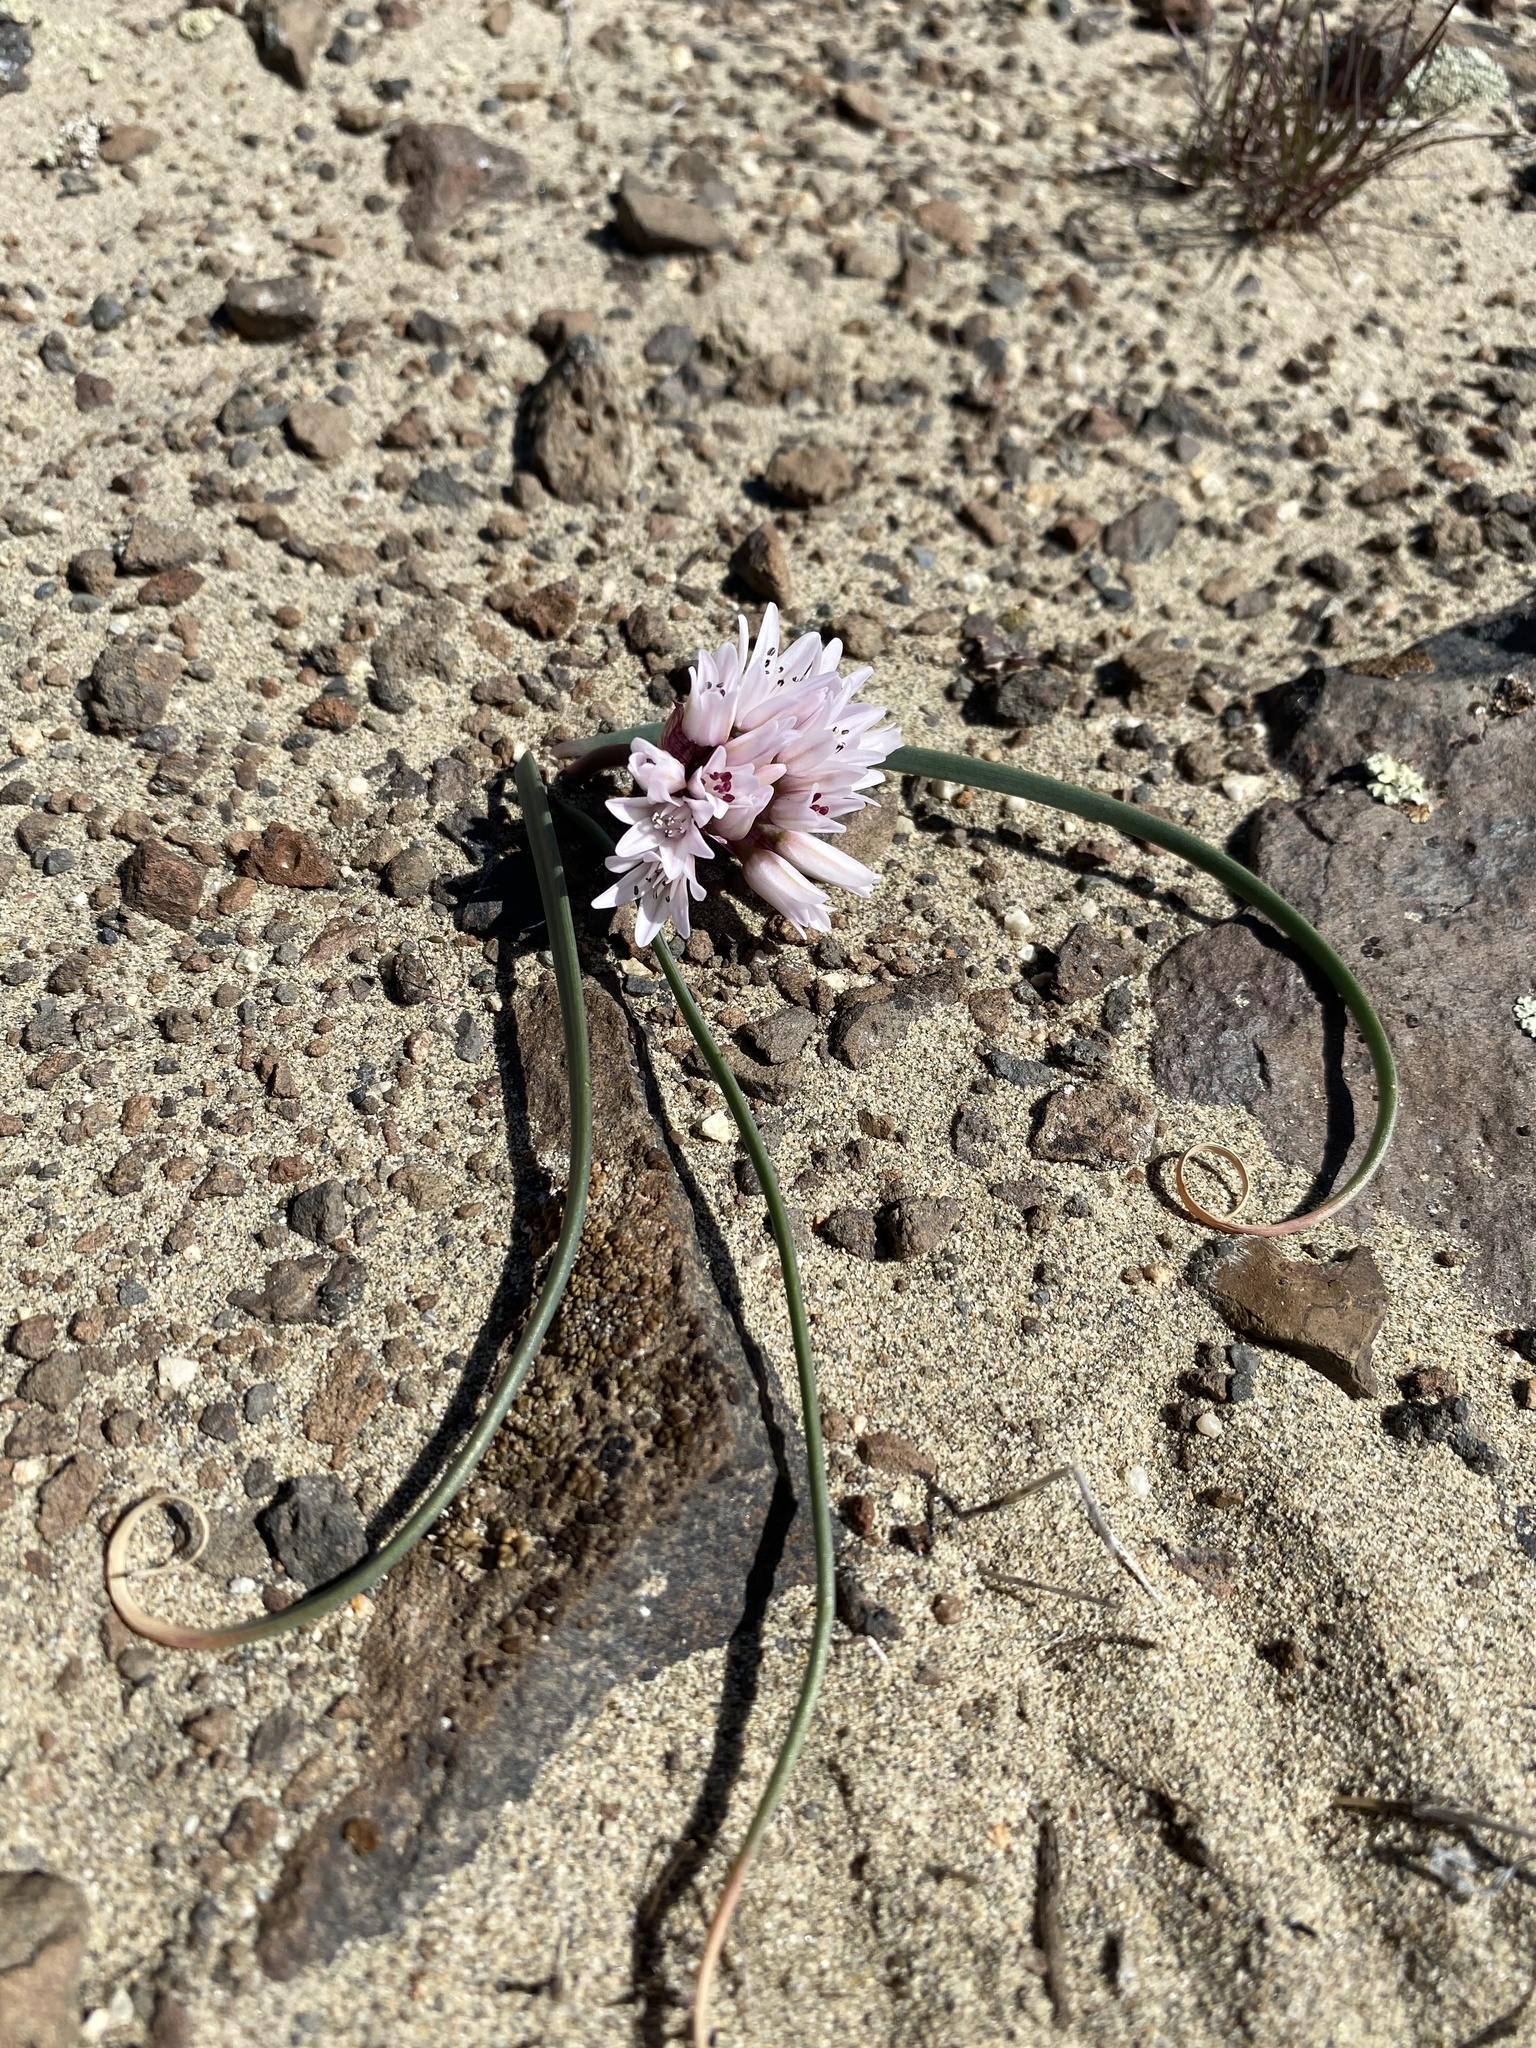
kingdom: Plantae
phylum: Tracheophyta
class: Liliopsida
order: Asparagales
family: Amaryllidaceae
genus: Allium
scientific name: Allium robinsonii
